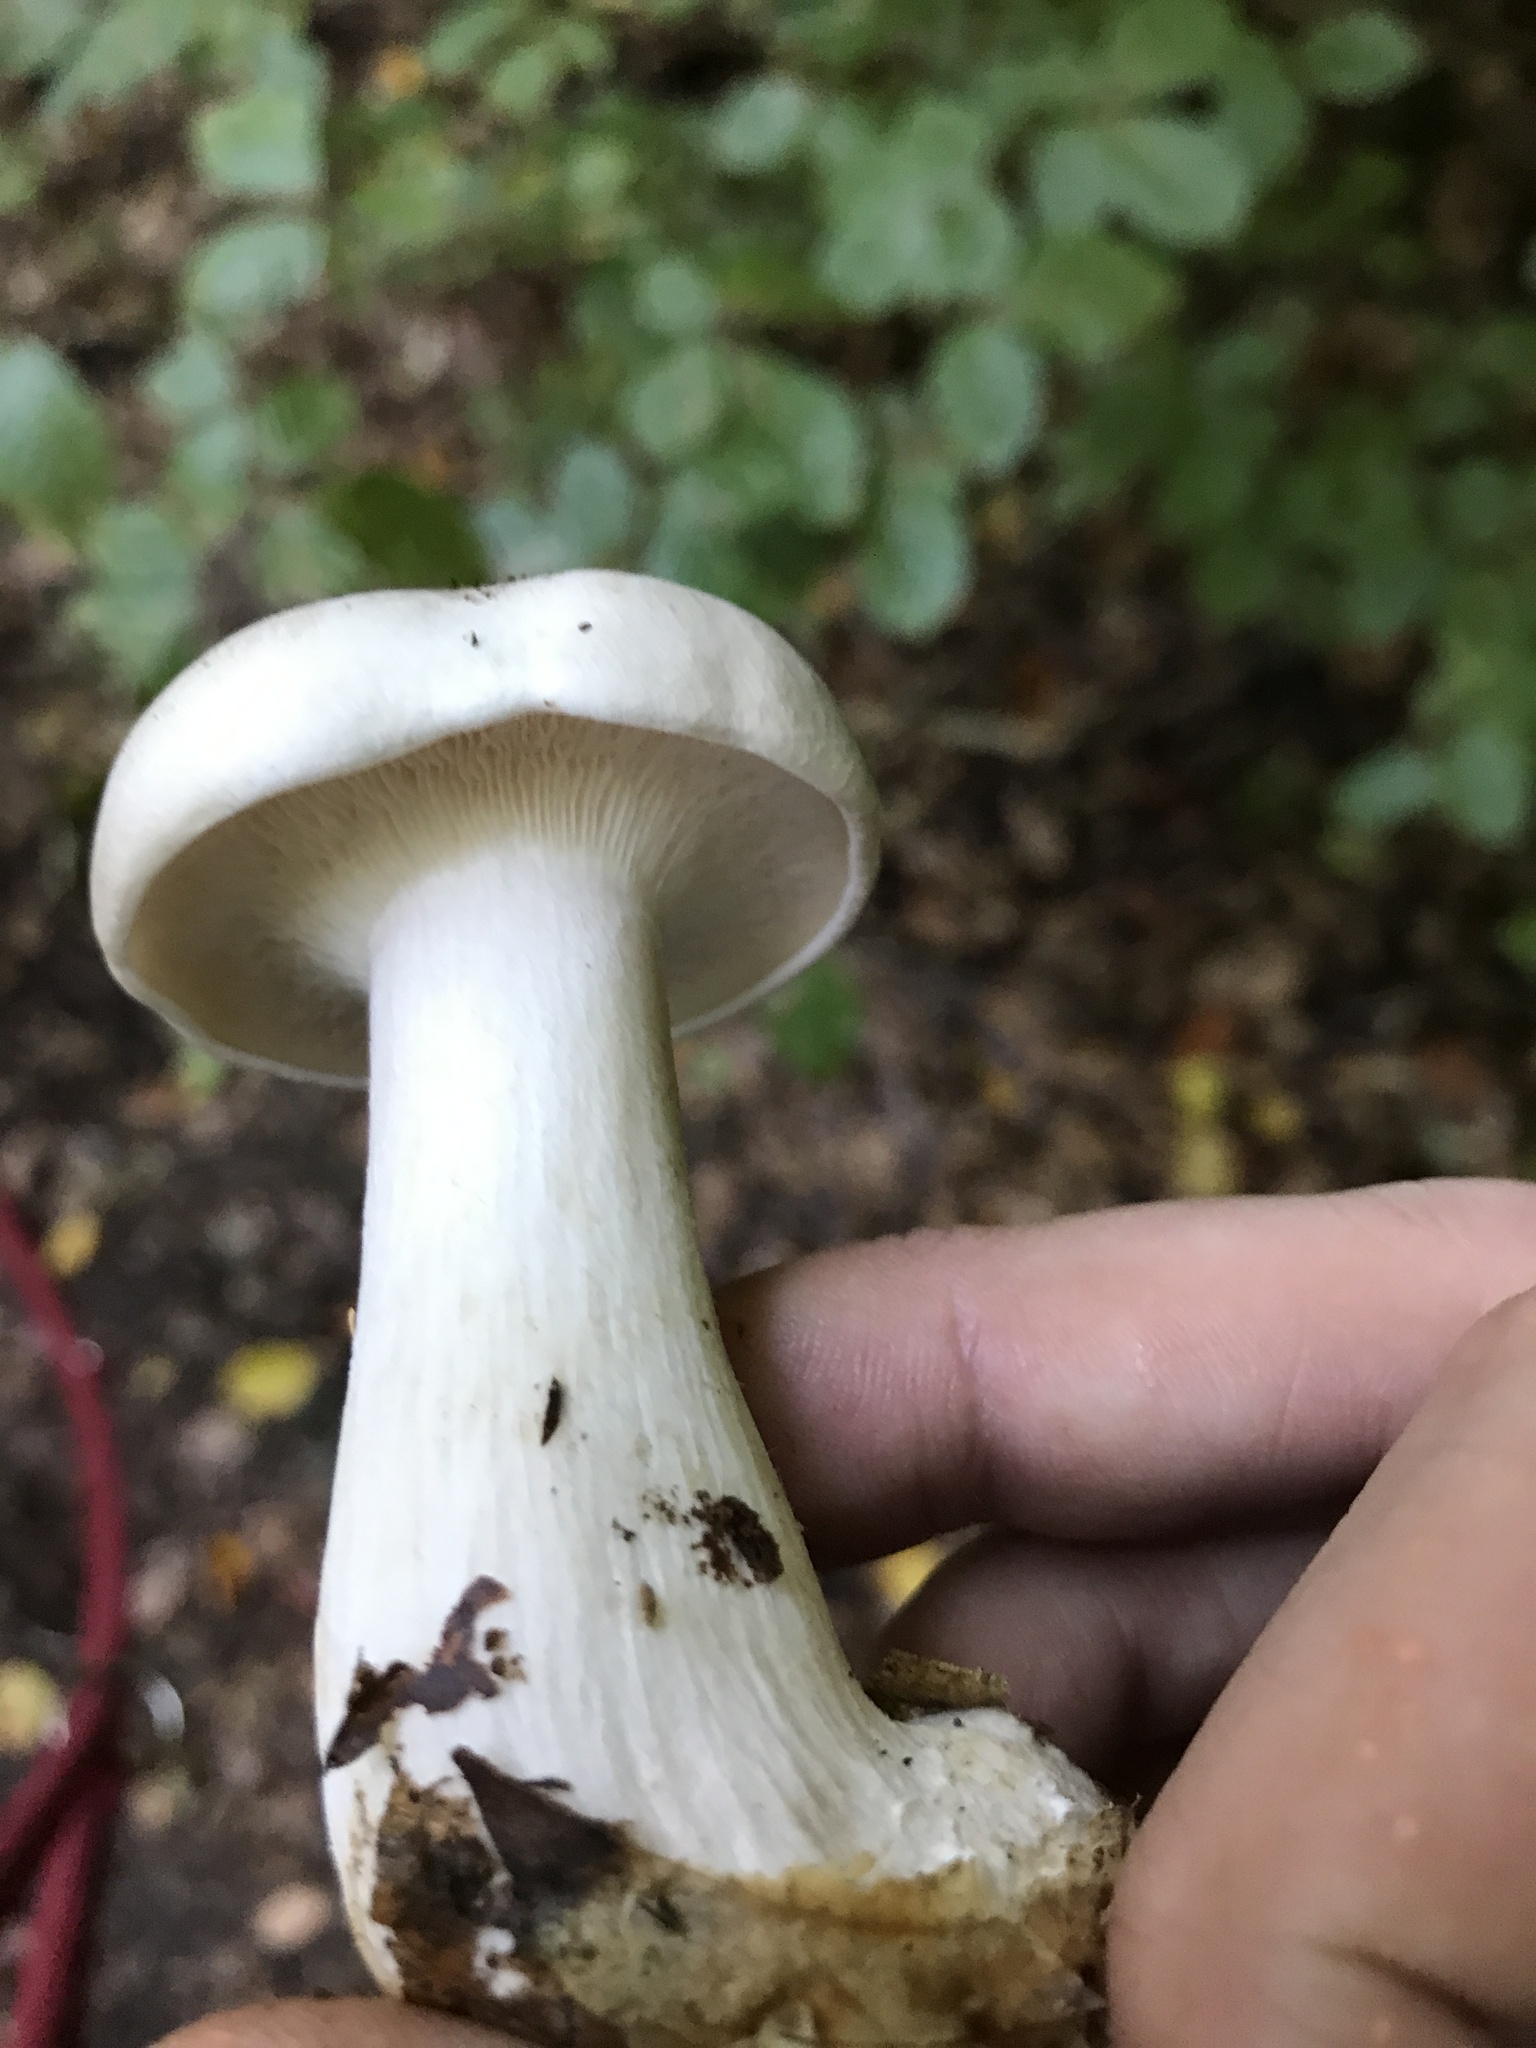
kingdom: Fungi
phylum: Basidiomycota
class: Agaricomycetes
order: Agaricales
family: Tricholomataceae
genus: Clitocybe
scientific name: Clitocybe nebularis
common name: Clouded agaric
